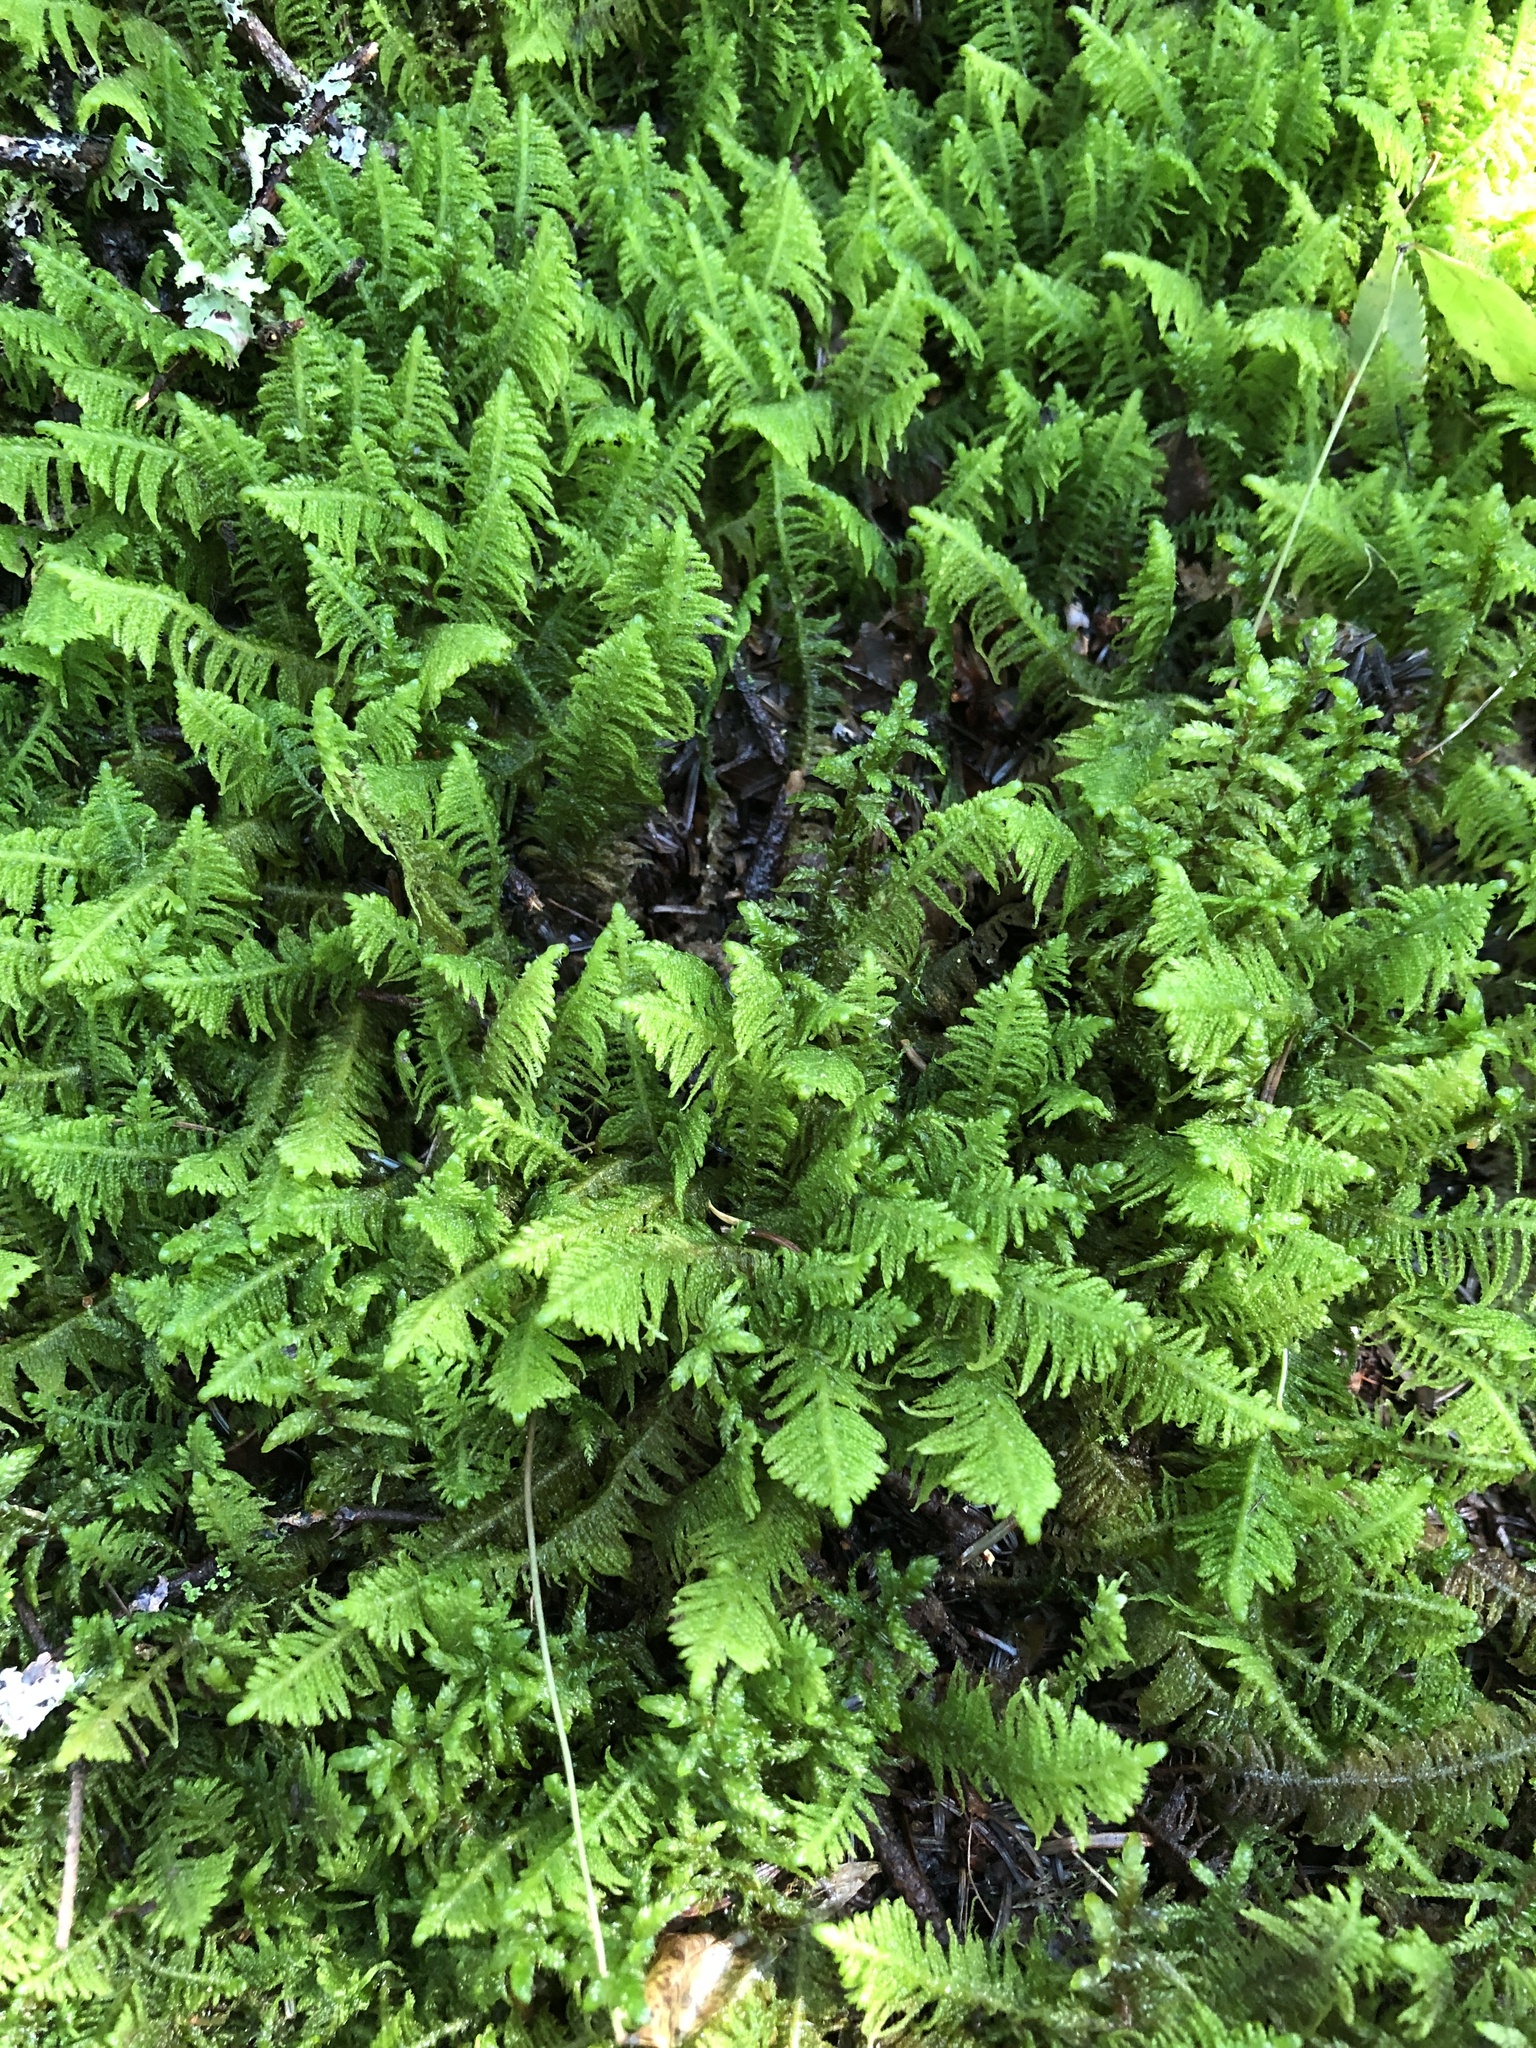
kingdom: Plantae
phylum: Bryophyta
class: Bryopsida
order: Hypnales
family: Pylaisiaceae
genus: Ptilium
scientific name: Ptilium crista-castrensis
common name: Knight's plume moss
